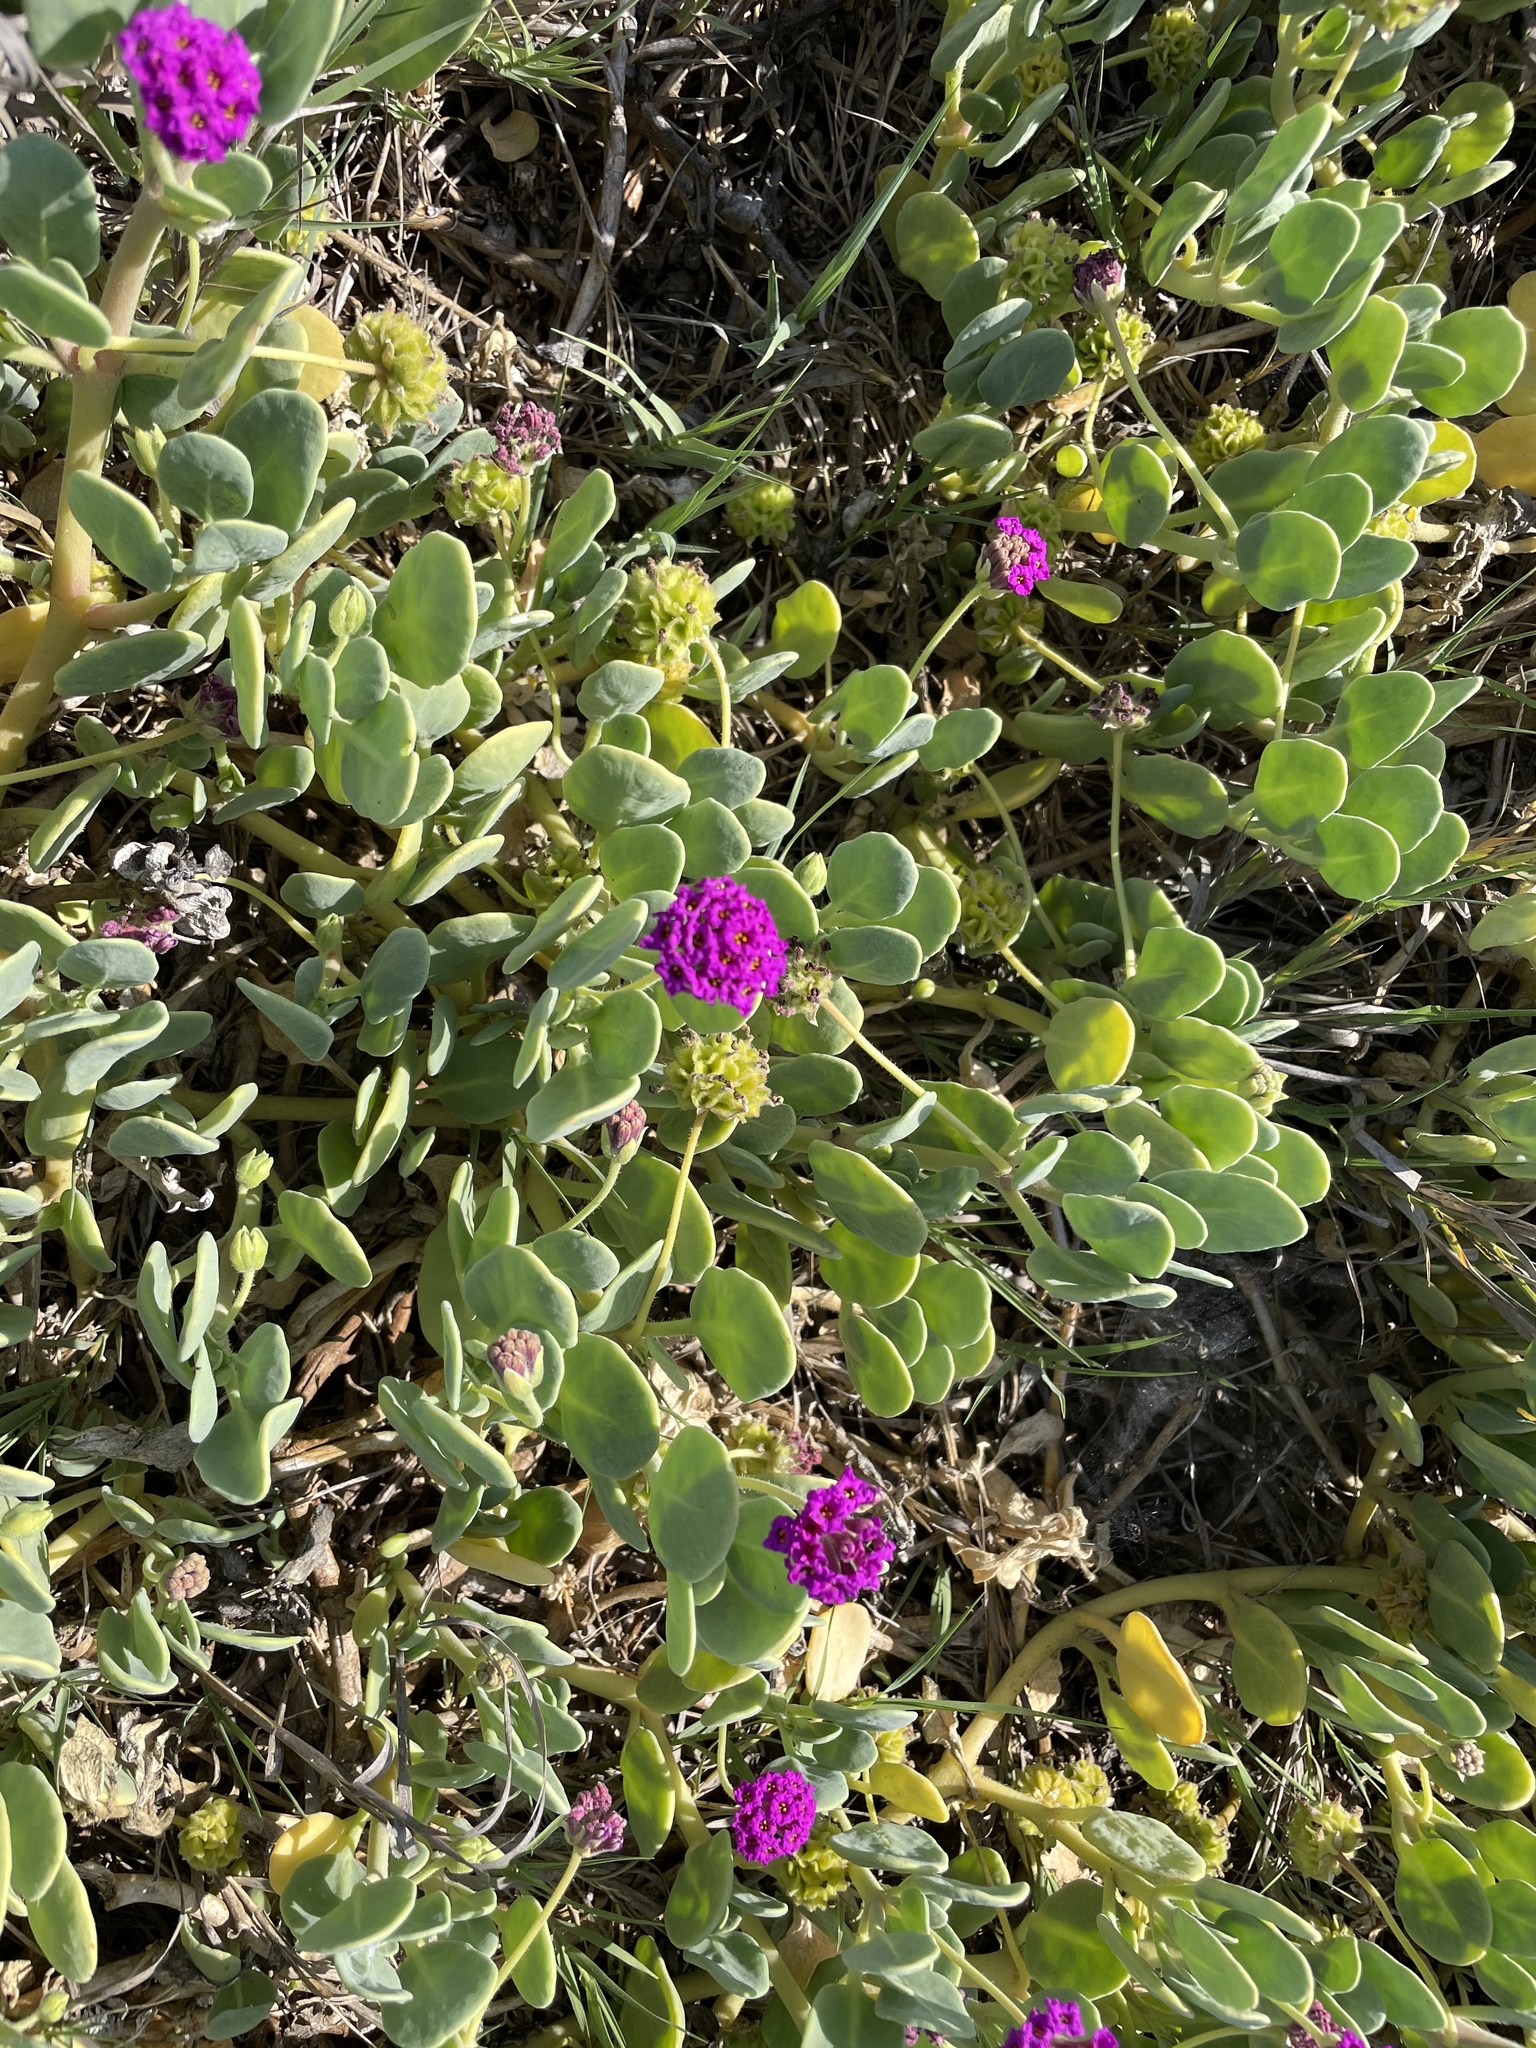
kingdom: Plantae
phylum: Tracheophyta
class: Magnoliopsida
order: Caryophyllales
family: Nyctaginaceae
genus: Abronia
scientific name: Abronia maritima
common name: Red sand-verbena
